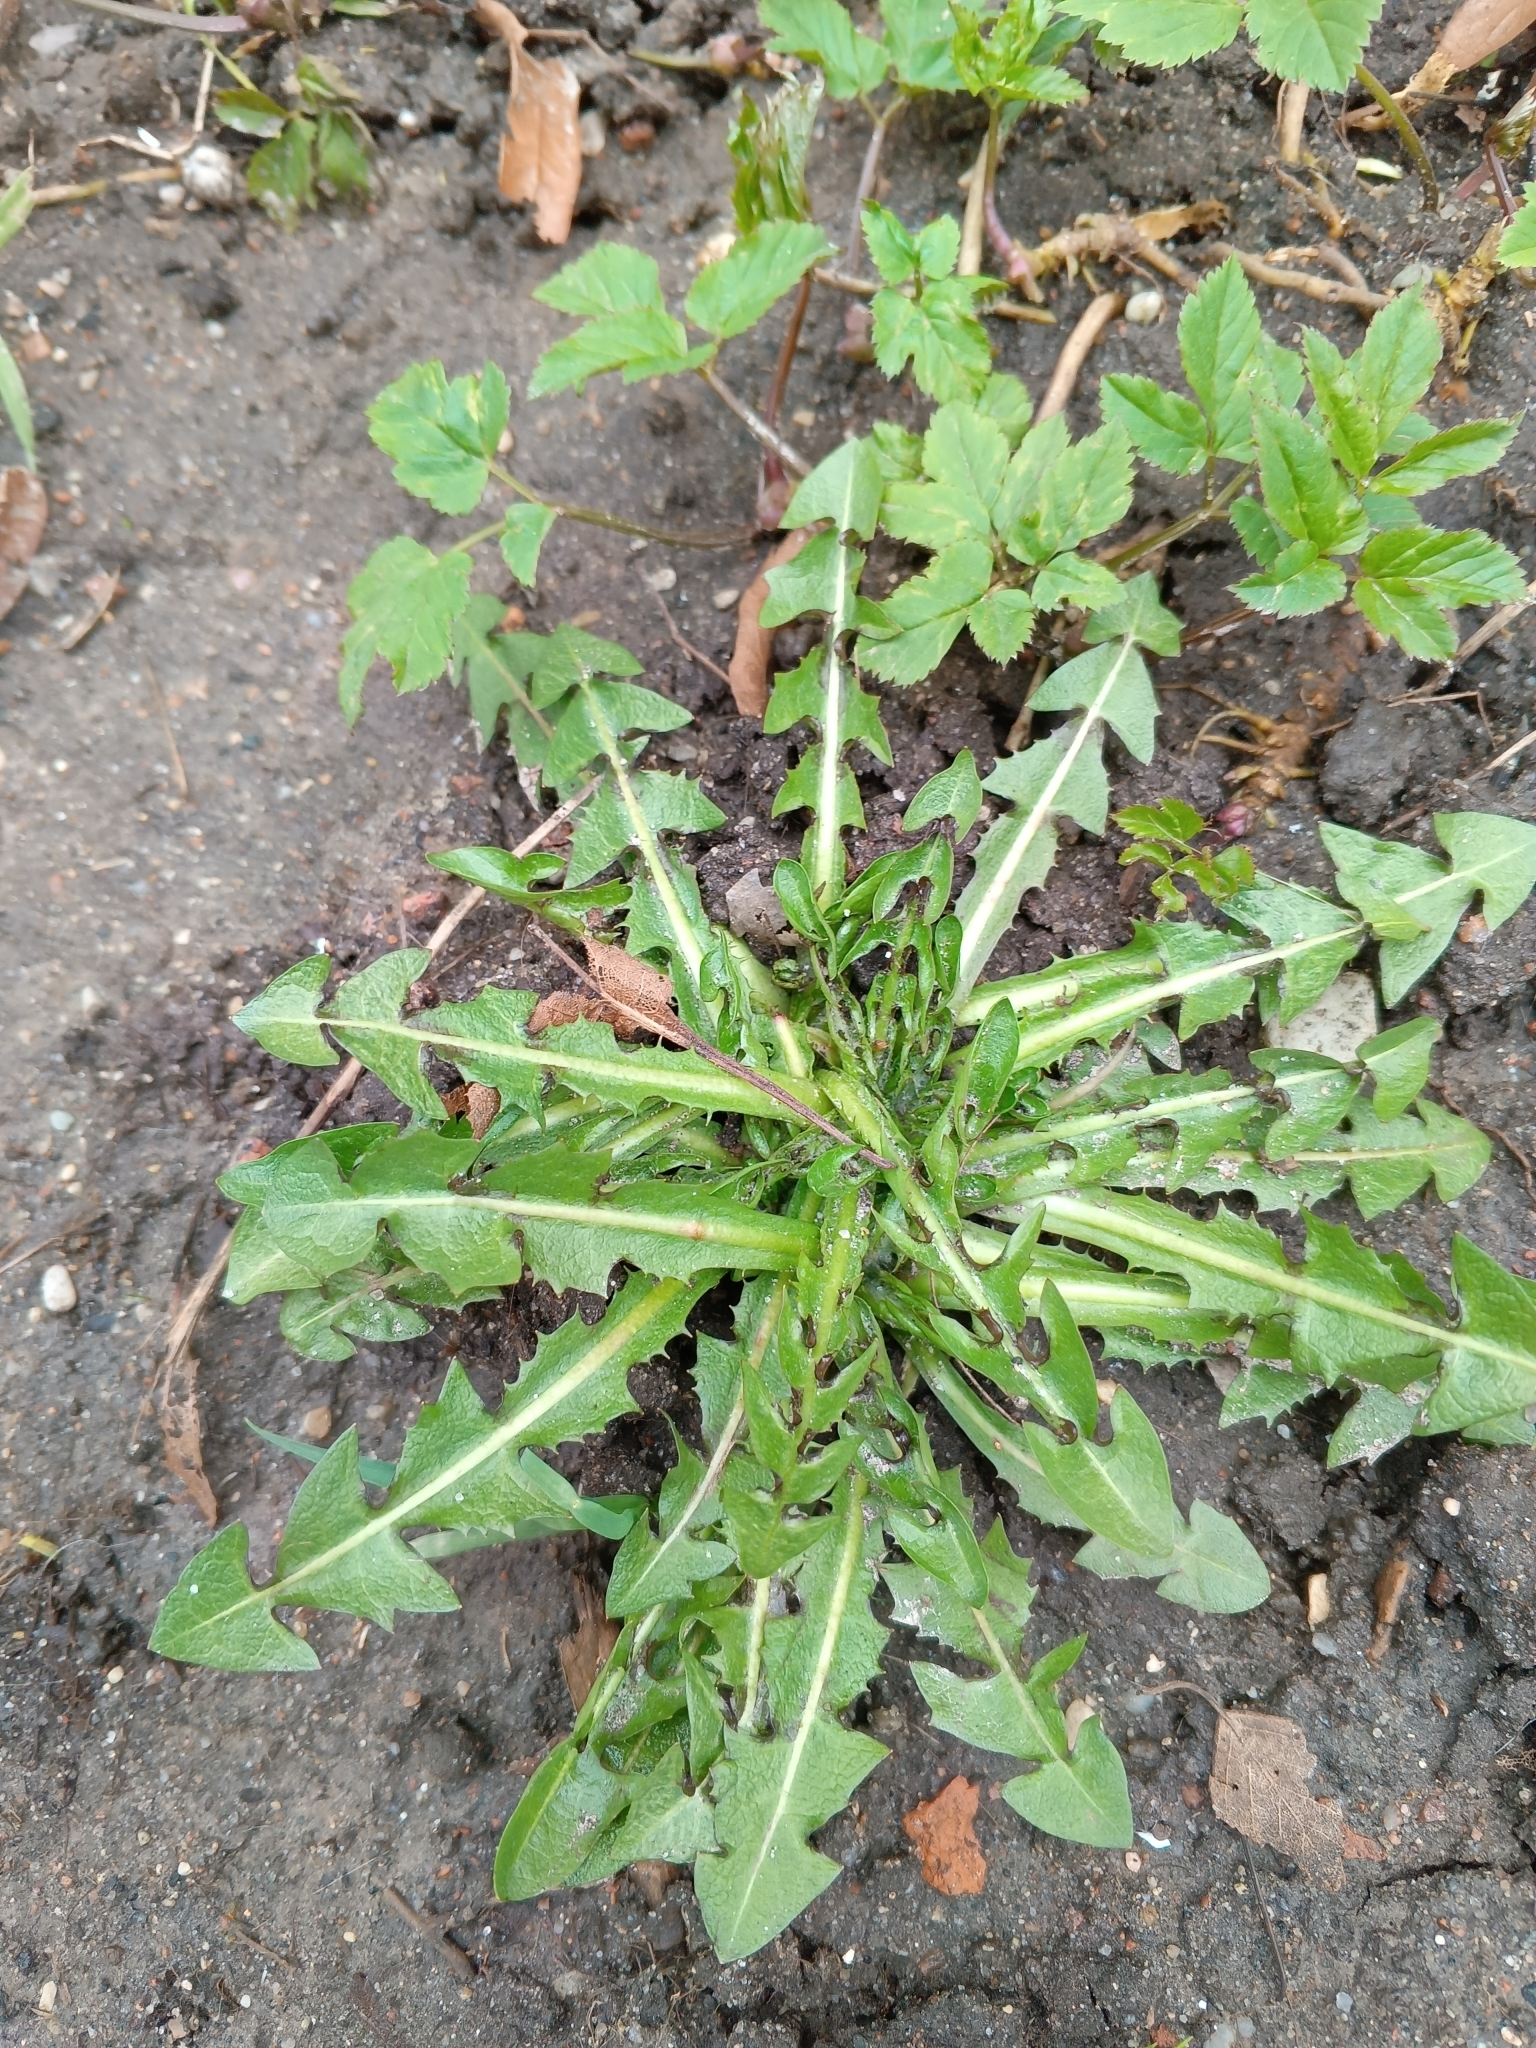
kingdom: Plantae
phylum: Tracheophyta
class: Magnoliopsida
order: Asterales
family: Asteraceae
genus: Taraxacum
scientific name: Taraxacum officinale
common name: Common dandelion
